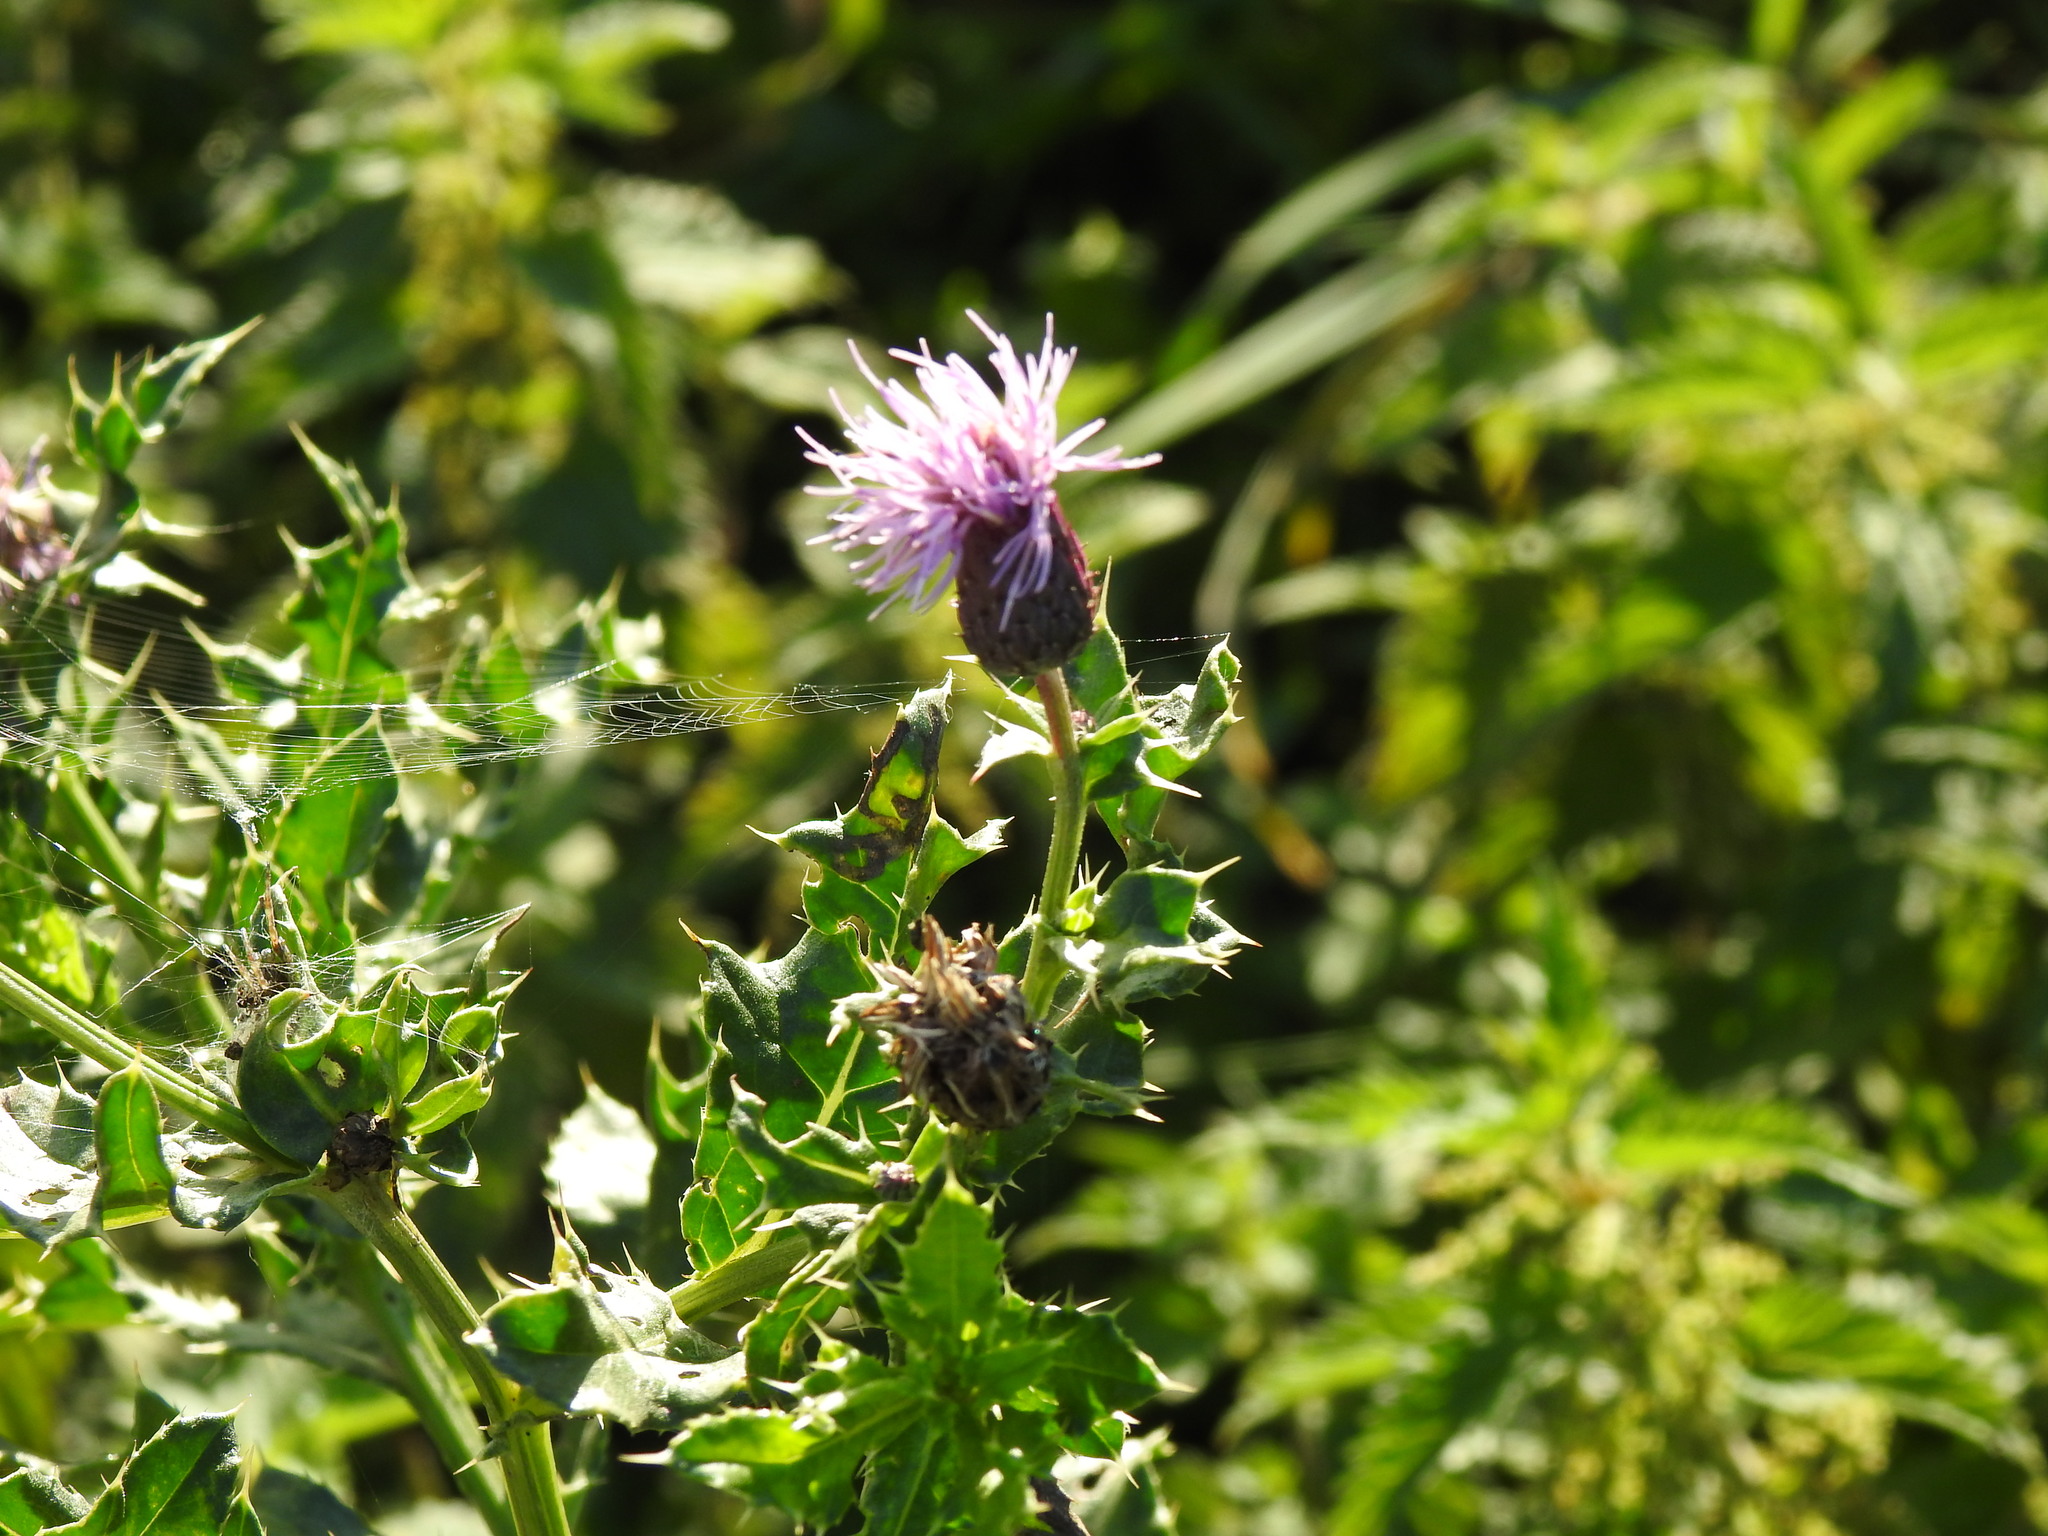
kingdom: Plantae
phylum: Tracheophyta
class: Magnoliopsida
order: Asterales
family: Asteraceae
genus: Cirsium
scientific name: Cirsium arvense
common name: Creeping thistle
